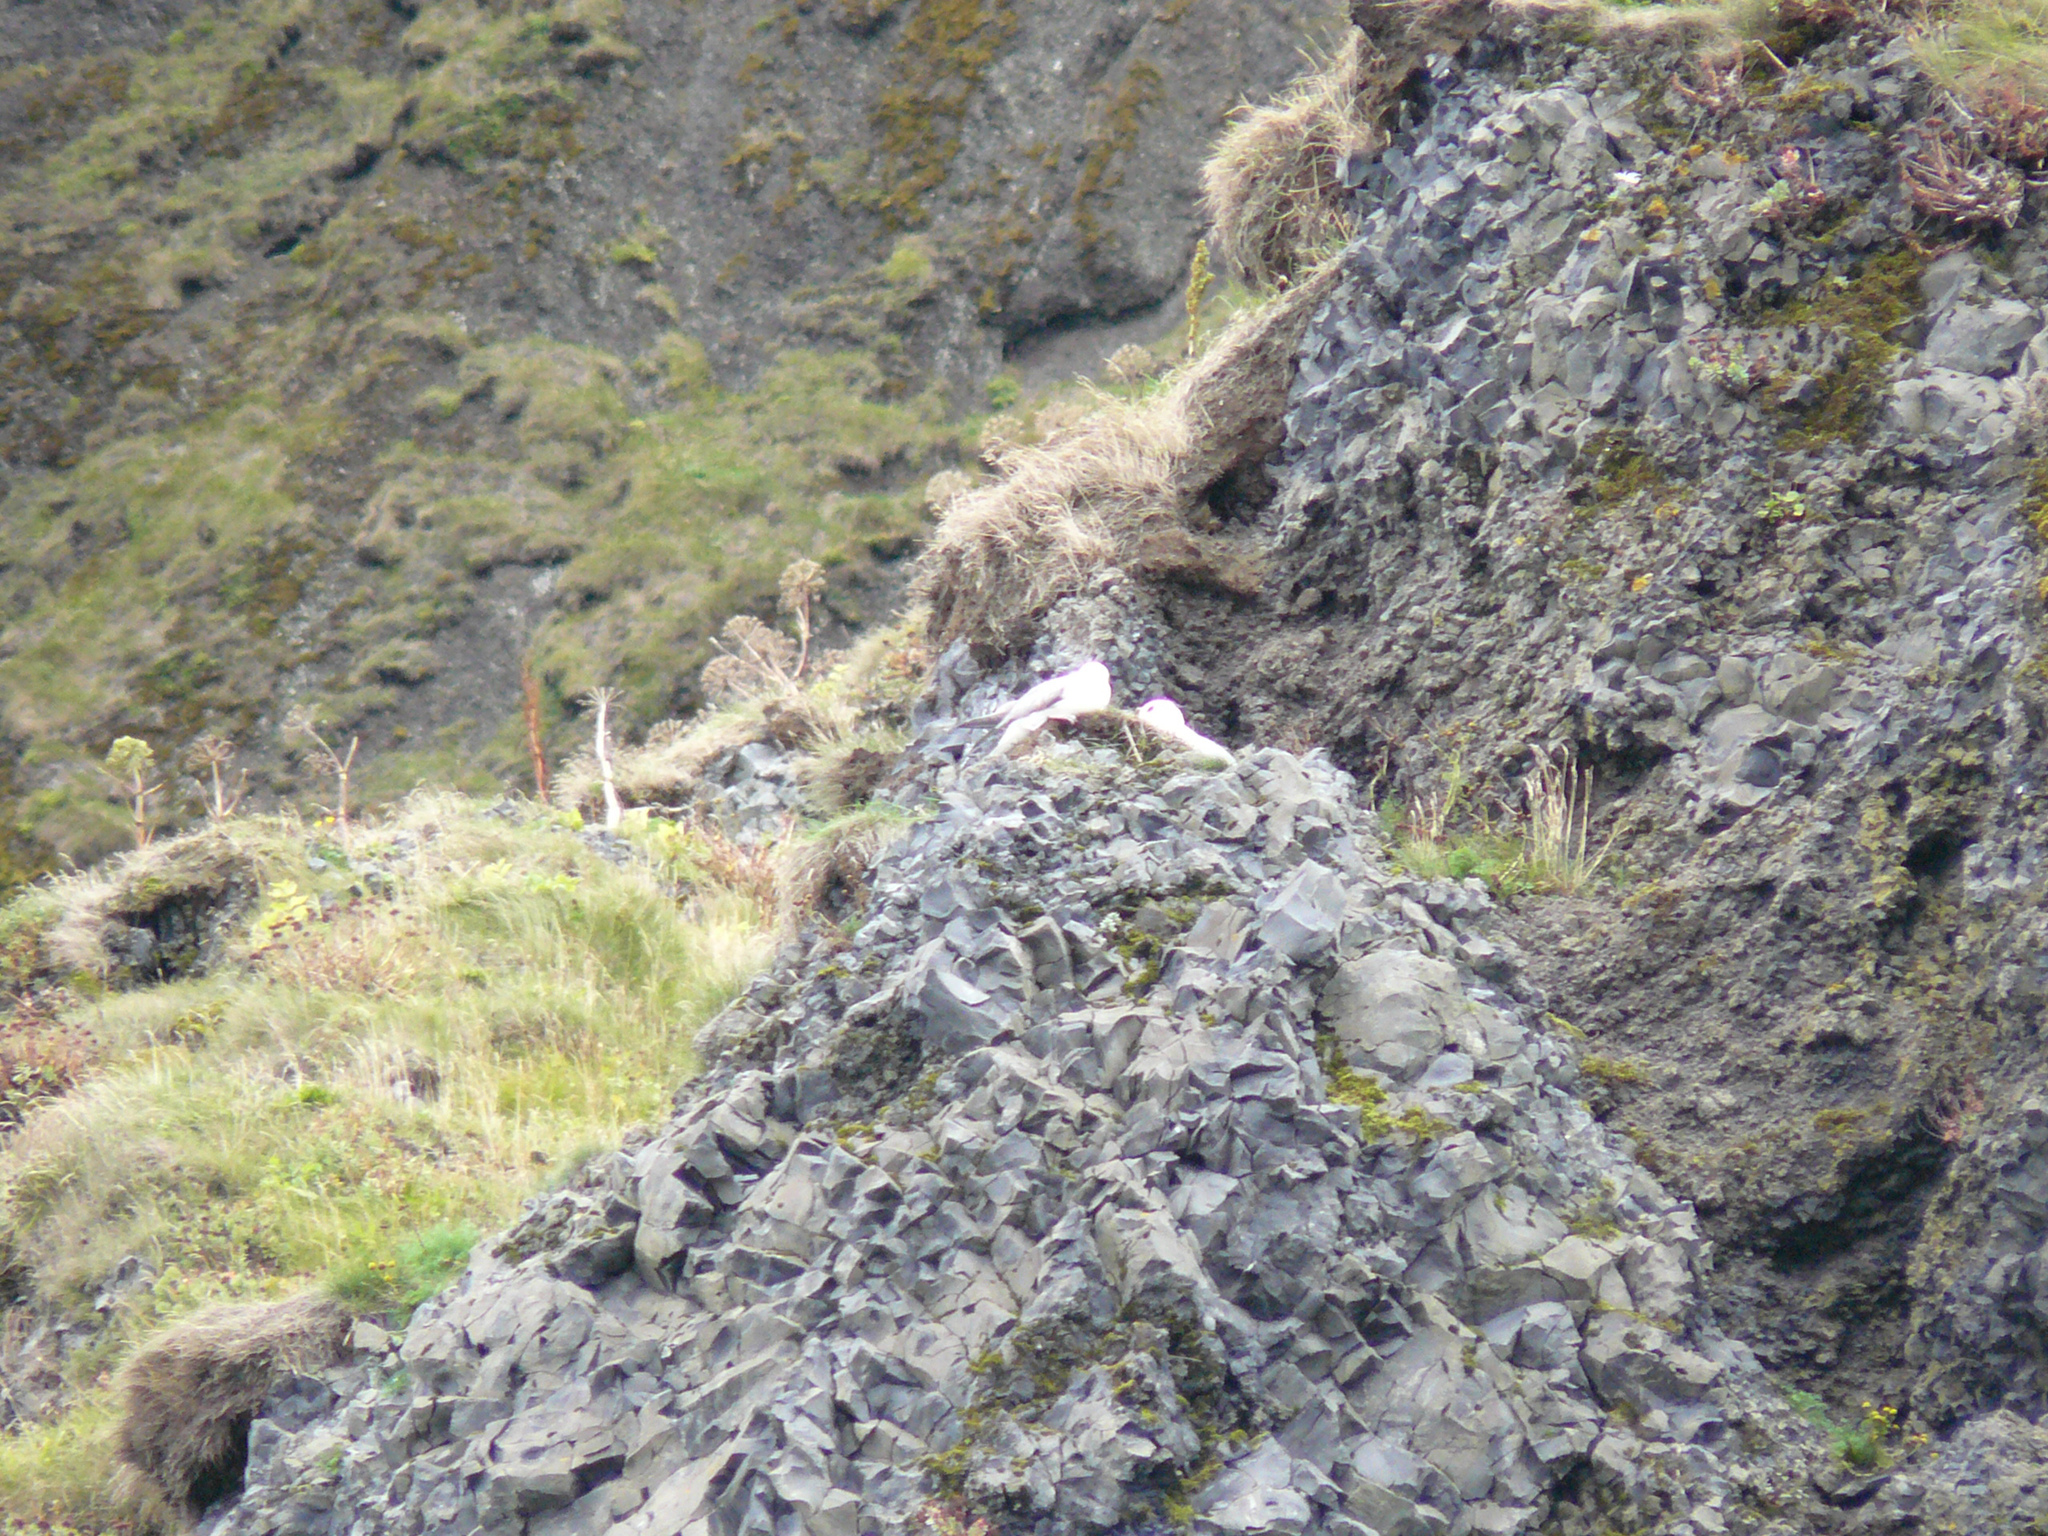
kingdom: Animalia
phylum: Chordata
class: Aves
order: Procellariiformes
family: Procellariidae
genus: Fulmarus
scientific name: Fulmarus glacialis
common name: Northern fulmar
